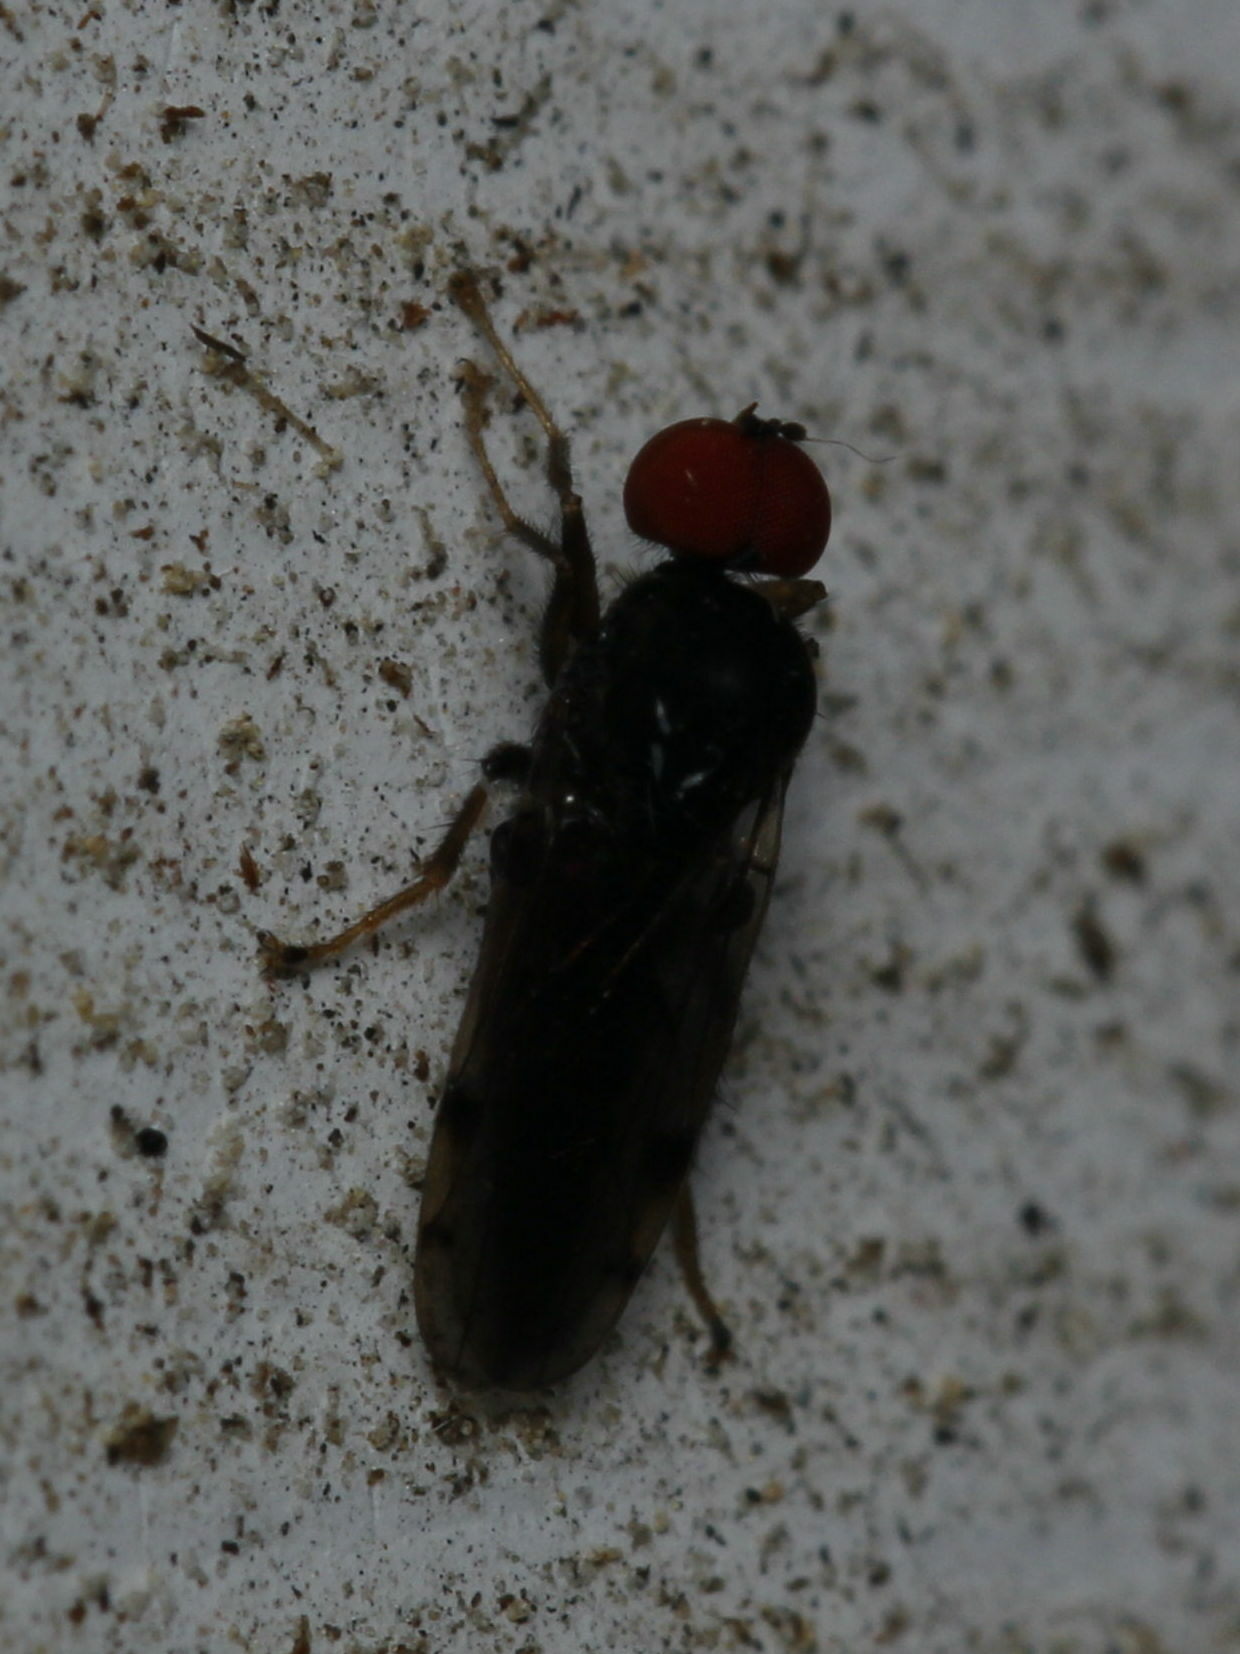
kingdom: Animalia
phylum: Arthropoda
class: Insecta
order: Diptera
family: Hybotidae
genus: Syneches
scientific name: Syneches simplex
